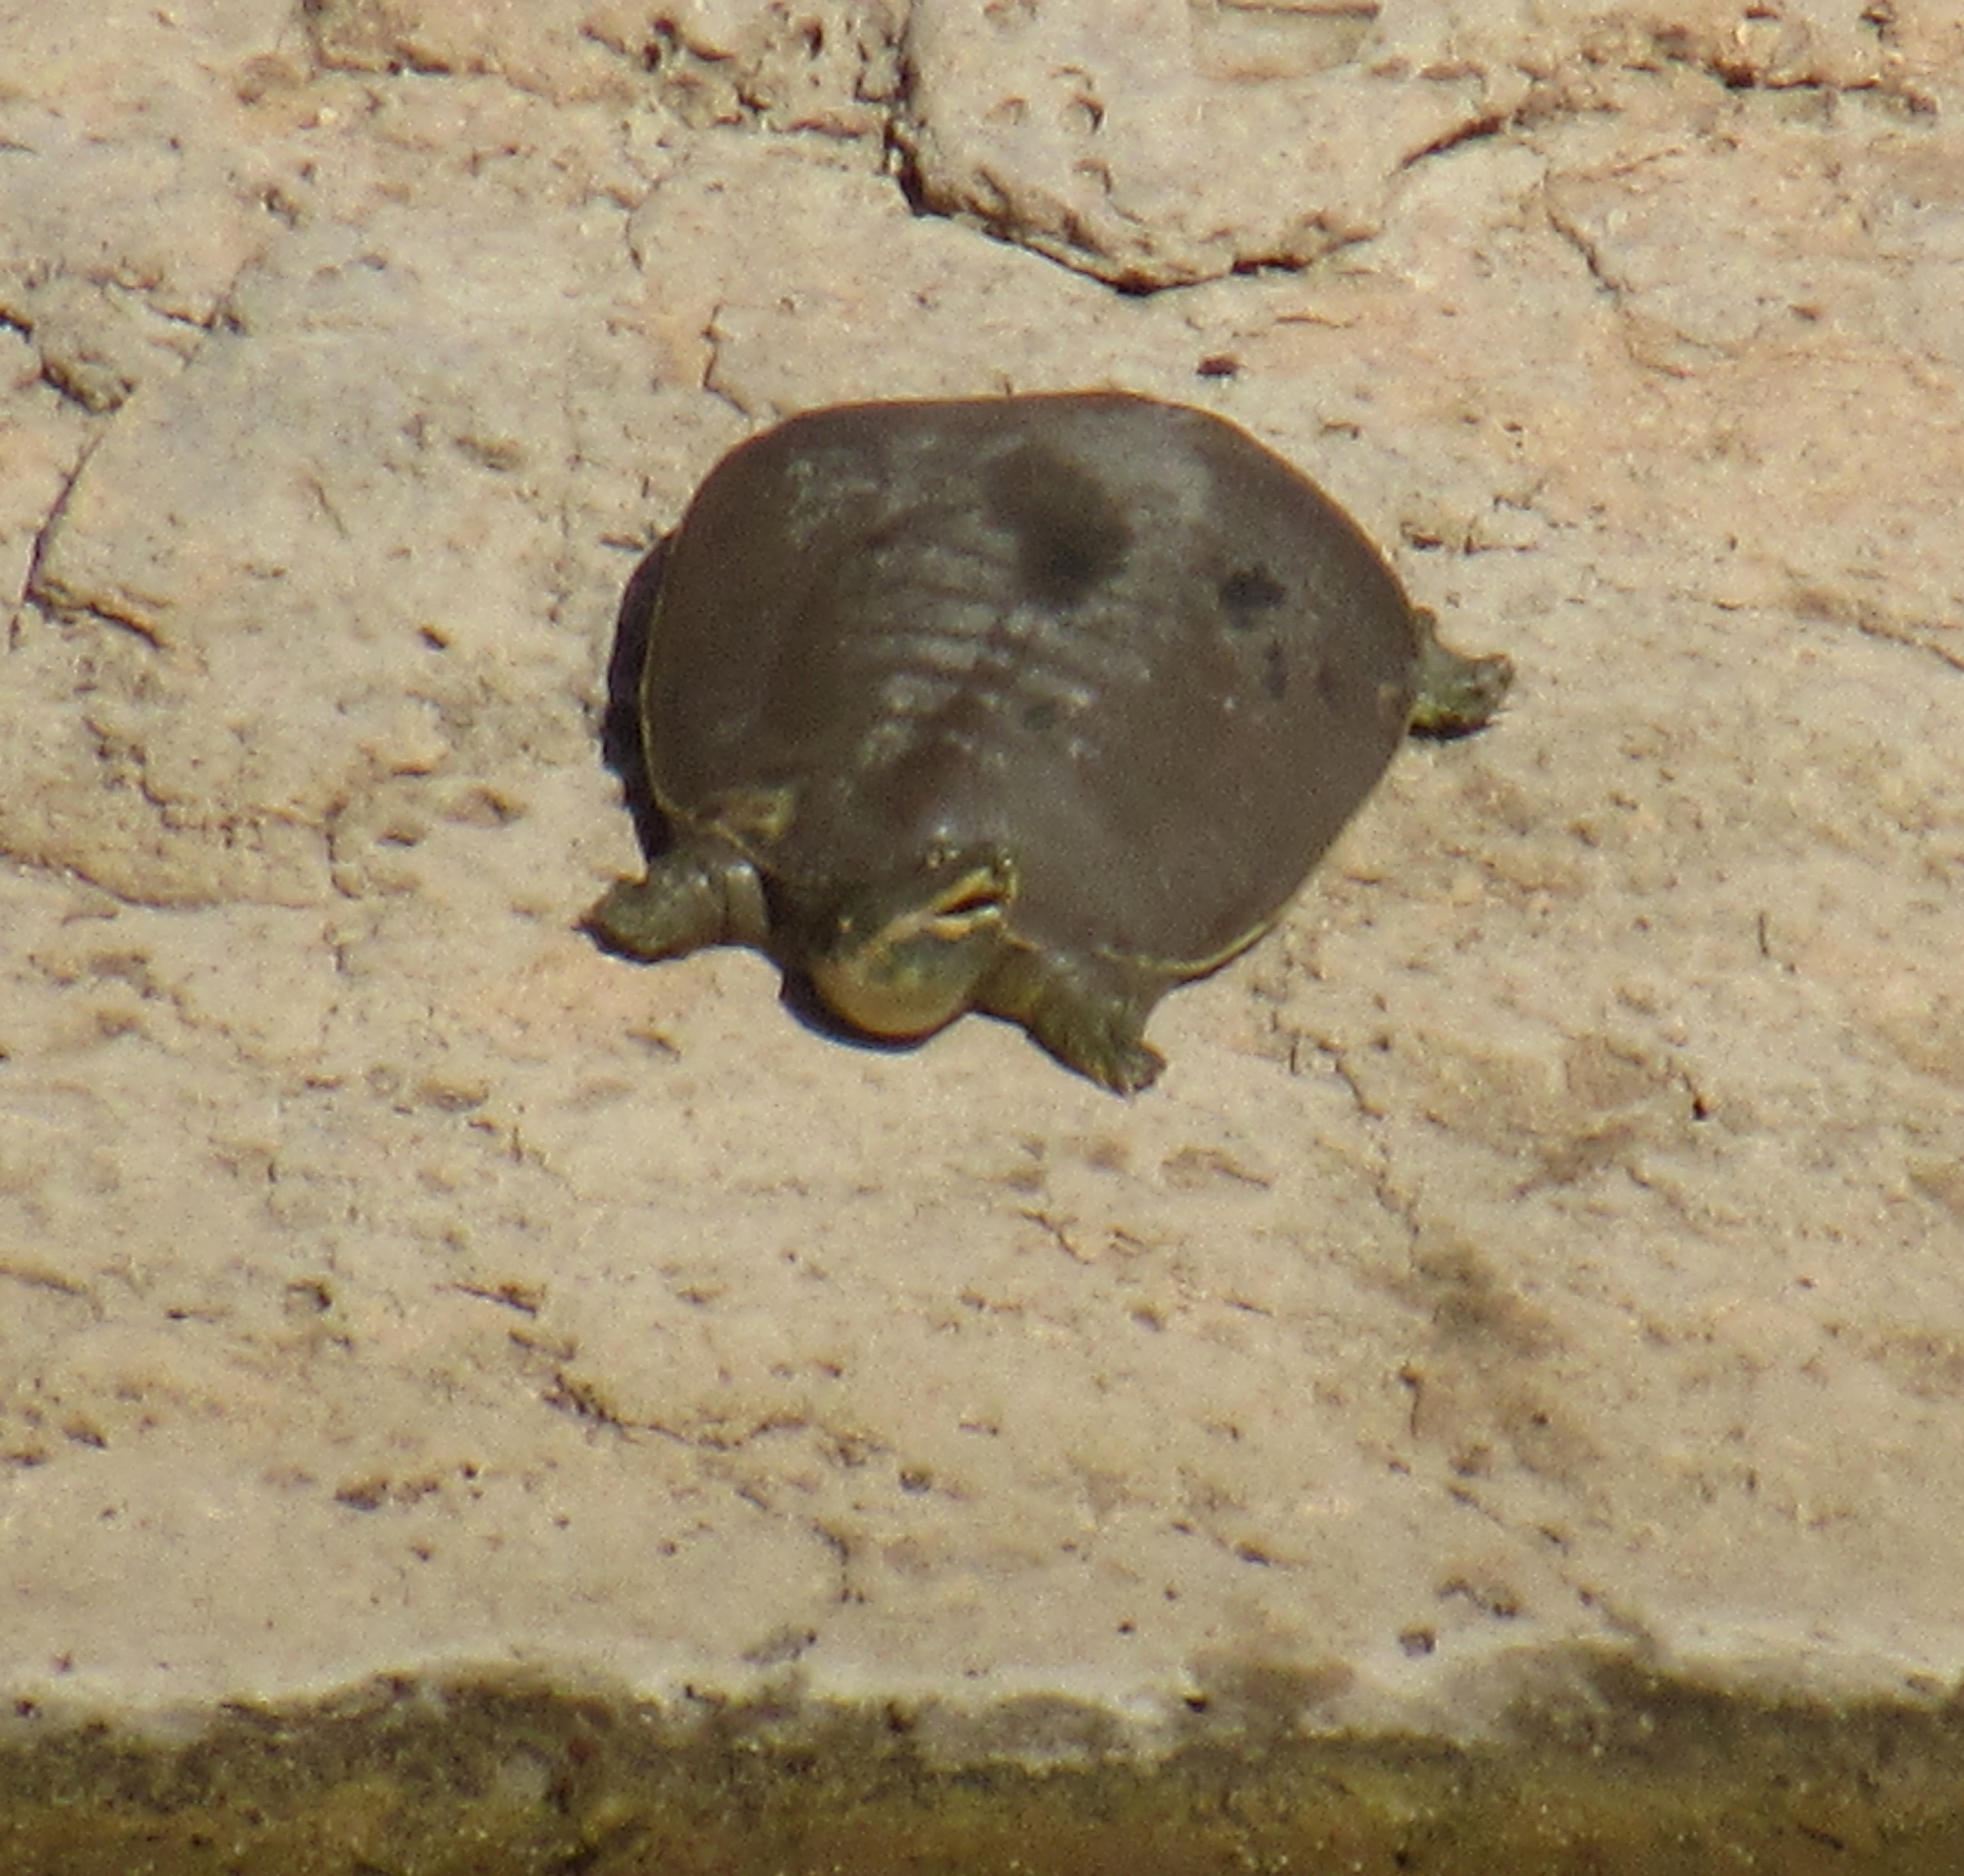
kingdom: Animalia
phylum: Chordata
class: Testudines
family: Trionychidae
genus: Apalone
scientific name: Apalone spinifera
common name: Spiny softshell turtle
